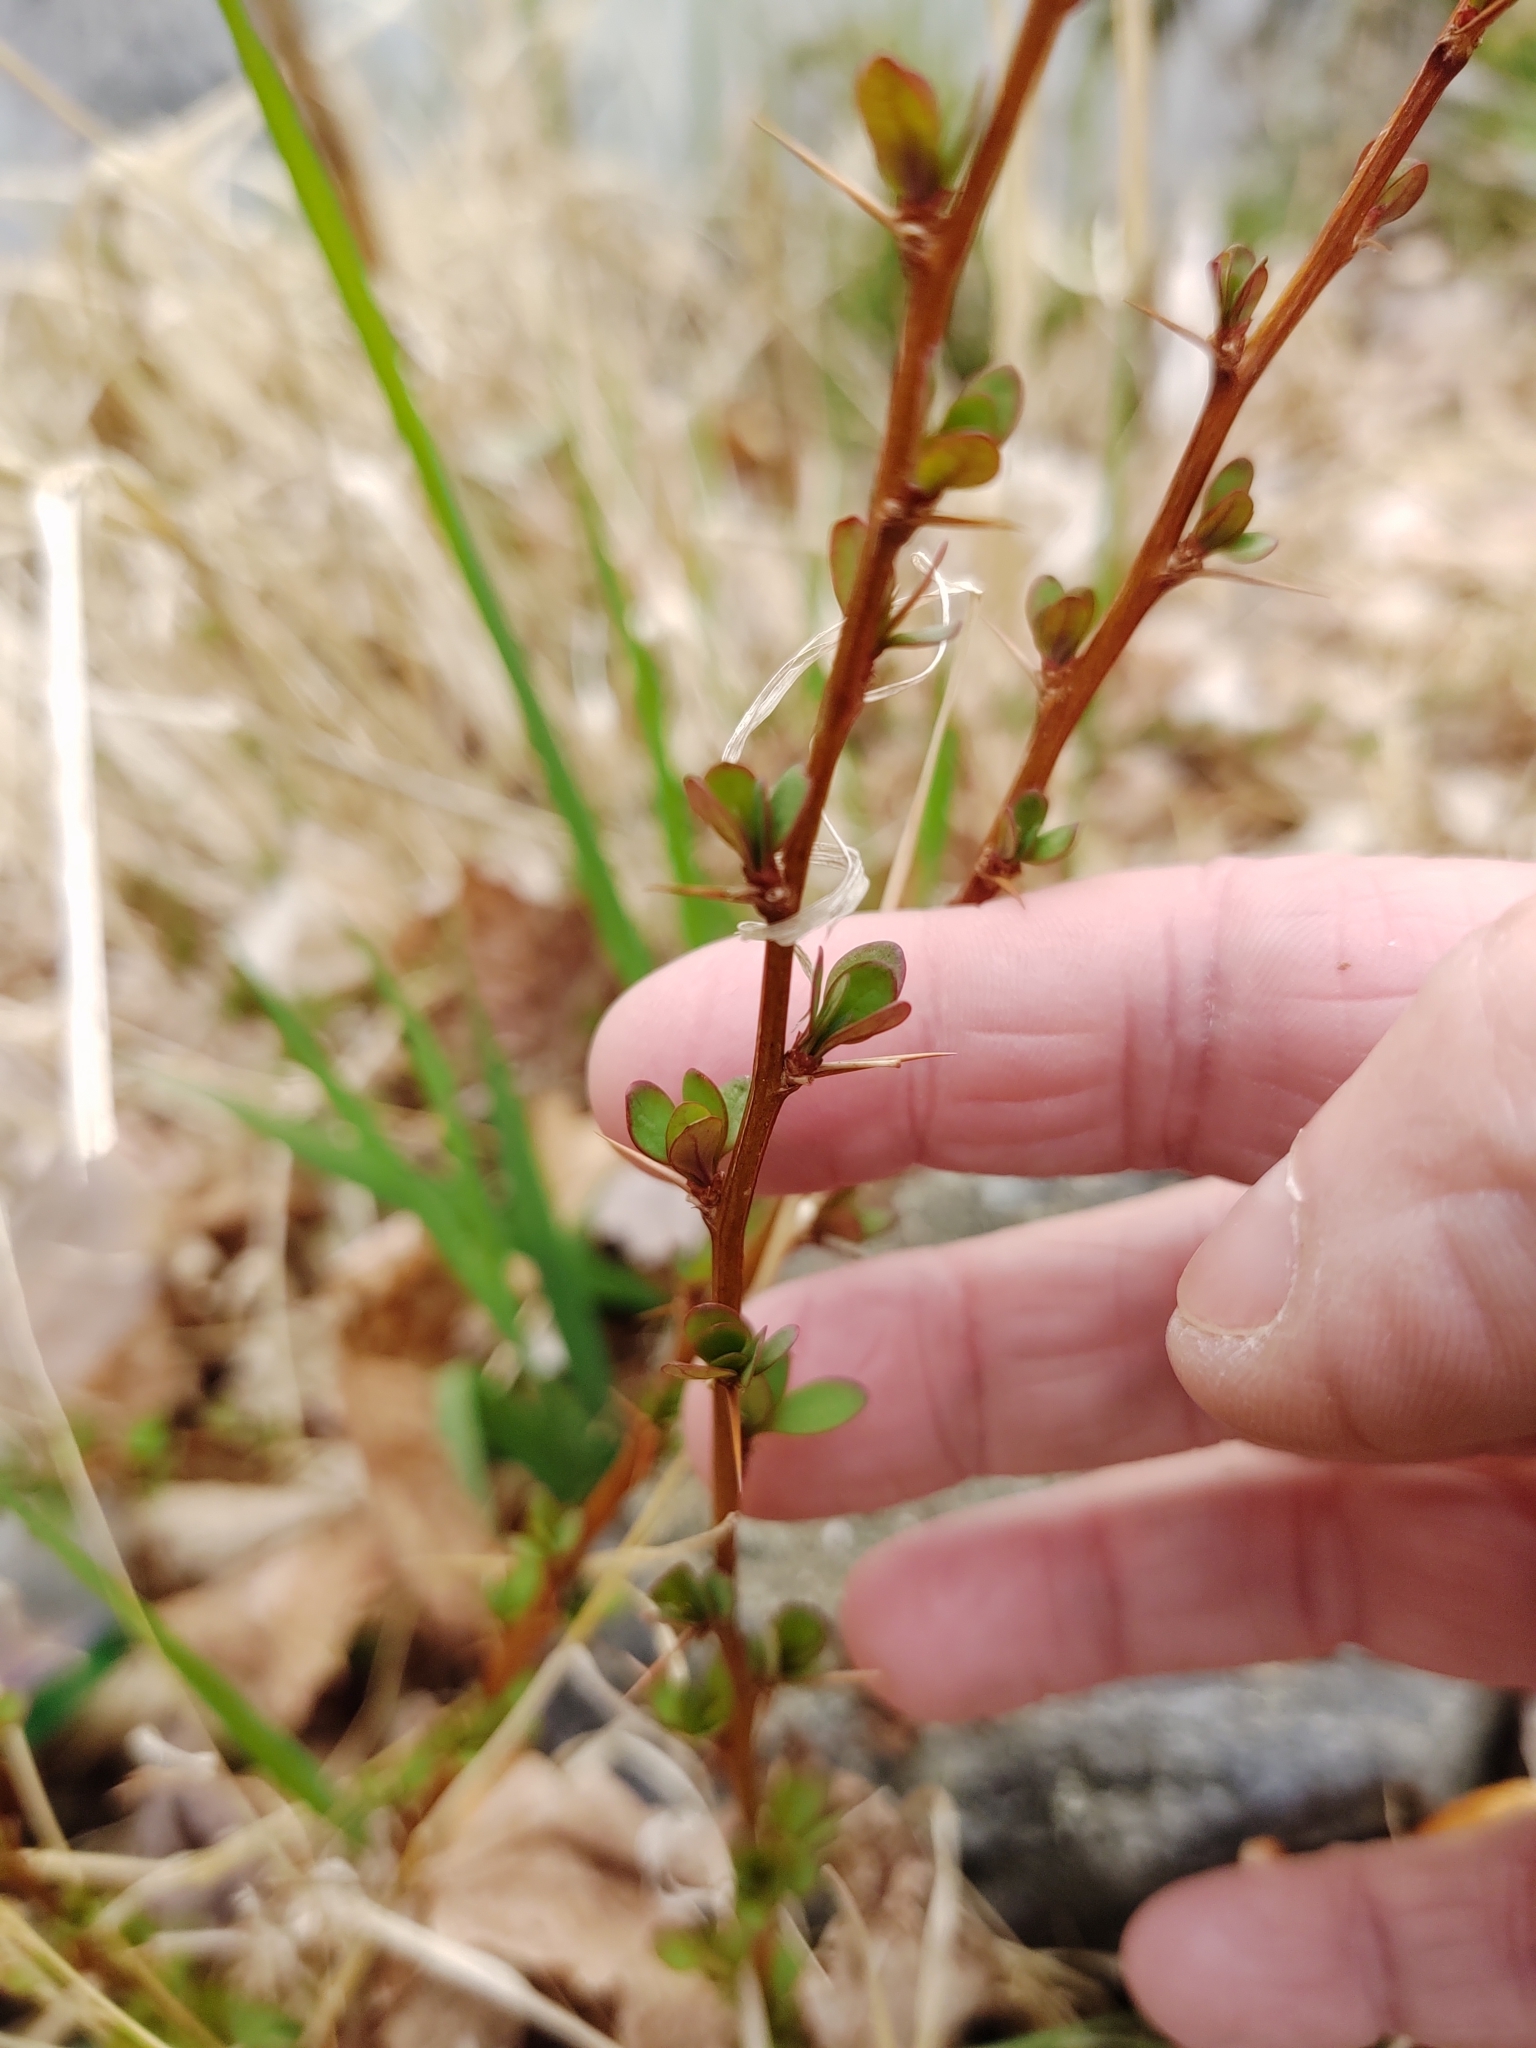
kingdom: Plantae
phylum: Tracheophyta
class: Magnoliopsida
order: Ranunculales
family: Berberidaceae
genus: Berberis
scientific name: Berberis thunbergii
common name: Japanese barberry
